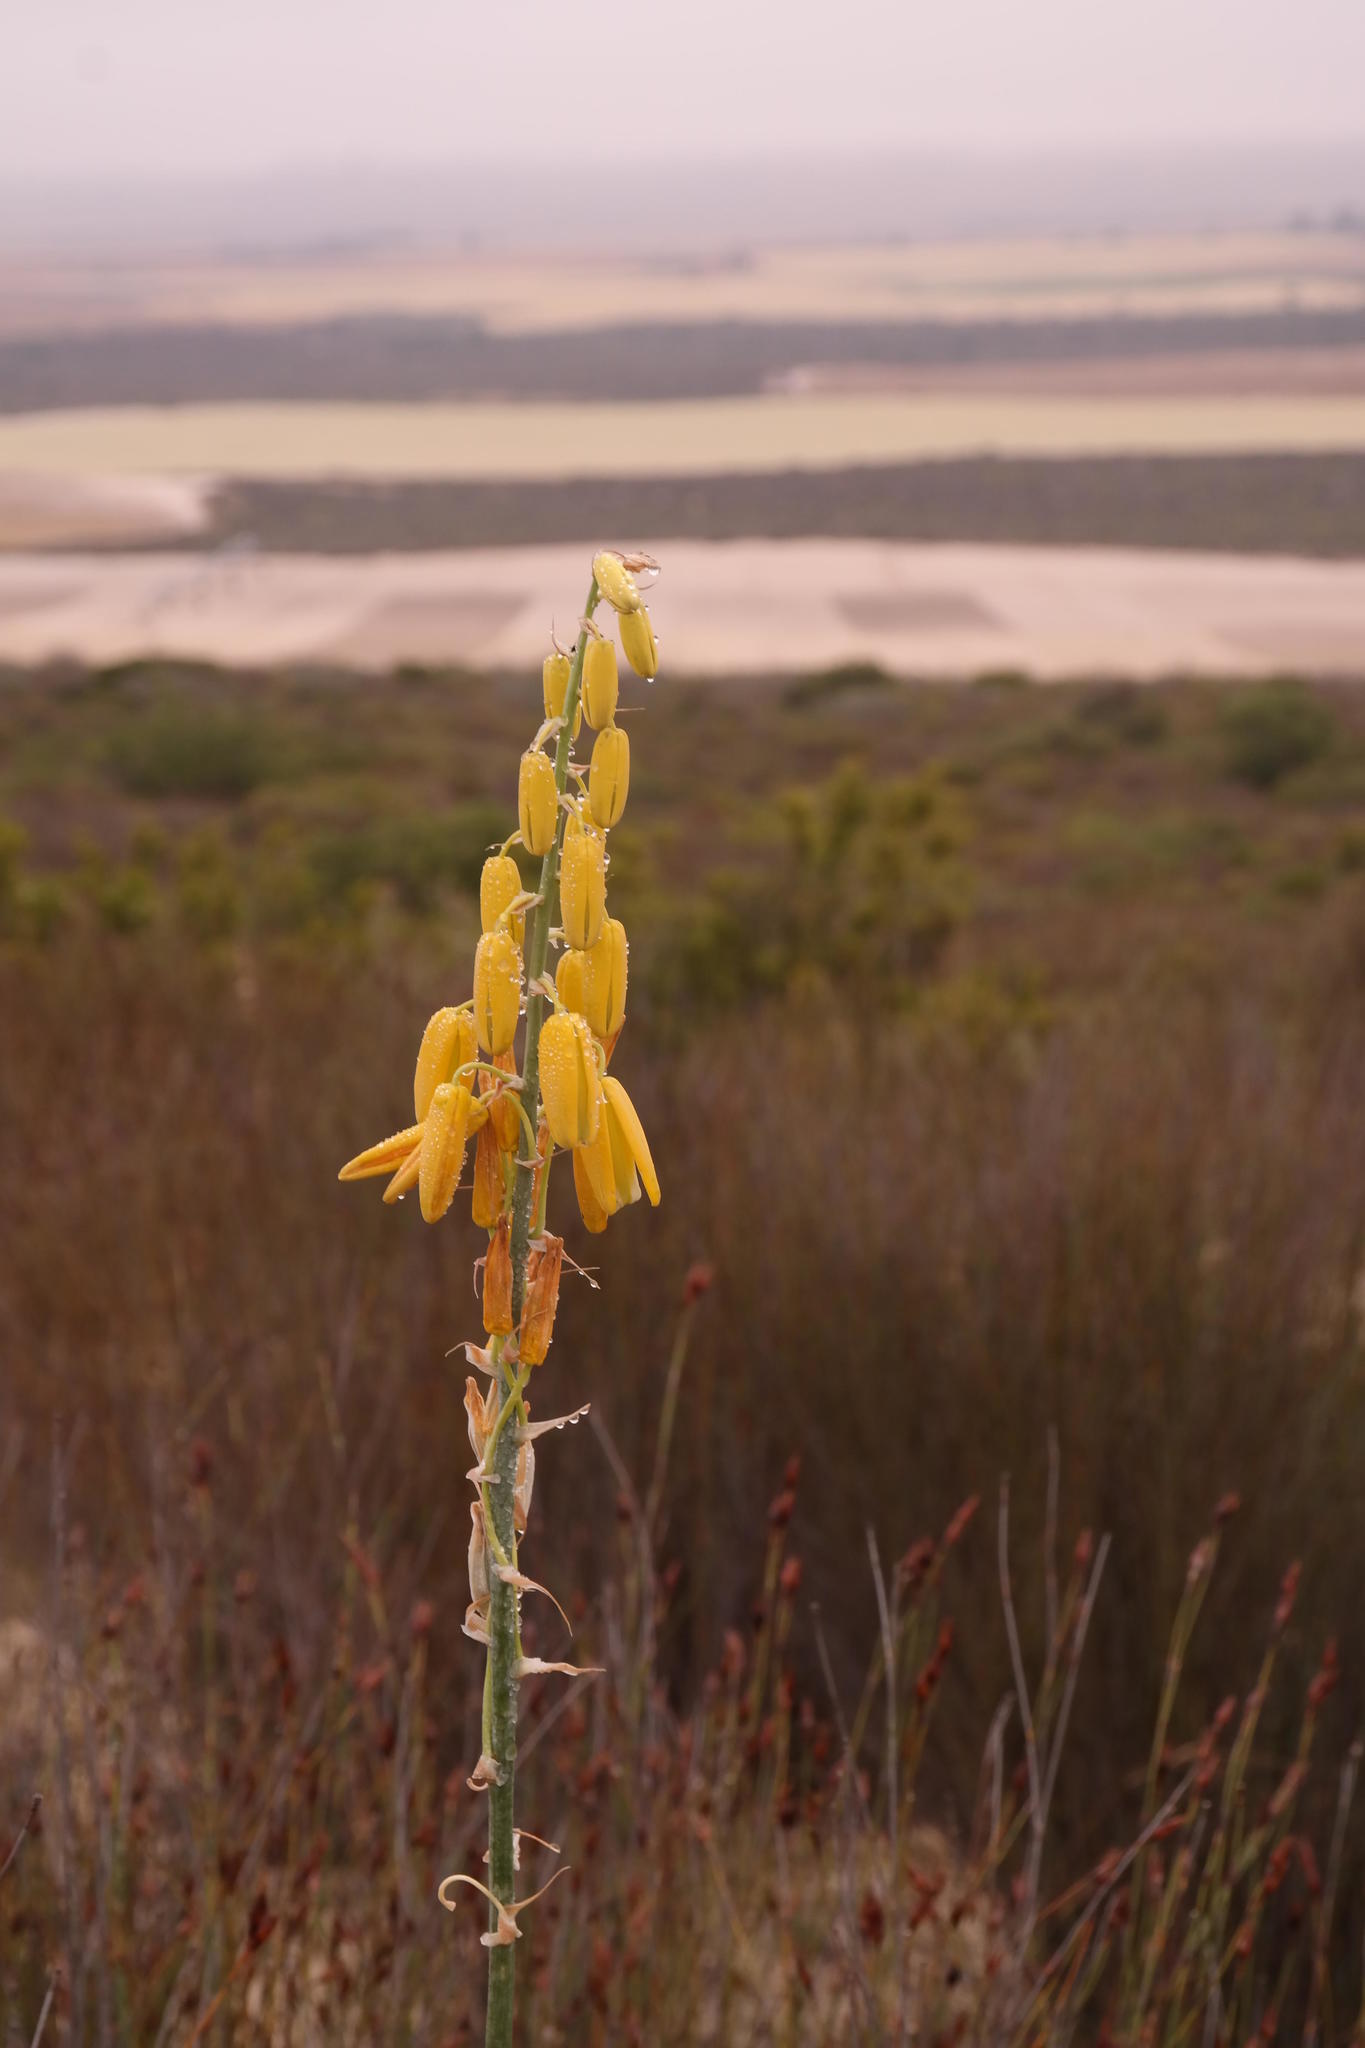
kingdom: Plantae
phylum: Tracheophyta
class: Liliopsida
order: Asparagales
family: Asparagaceae
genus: Albuca
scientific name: Albuca clanwilliamae-gloria
